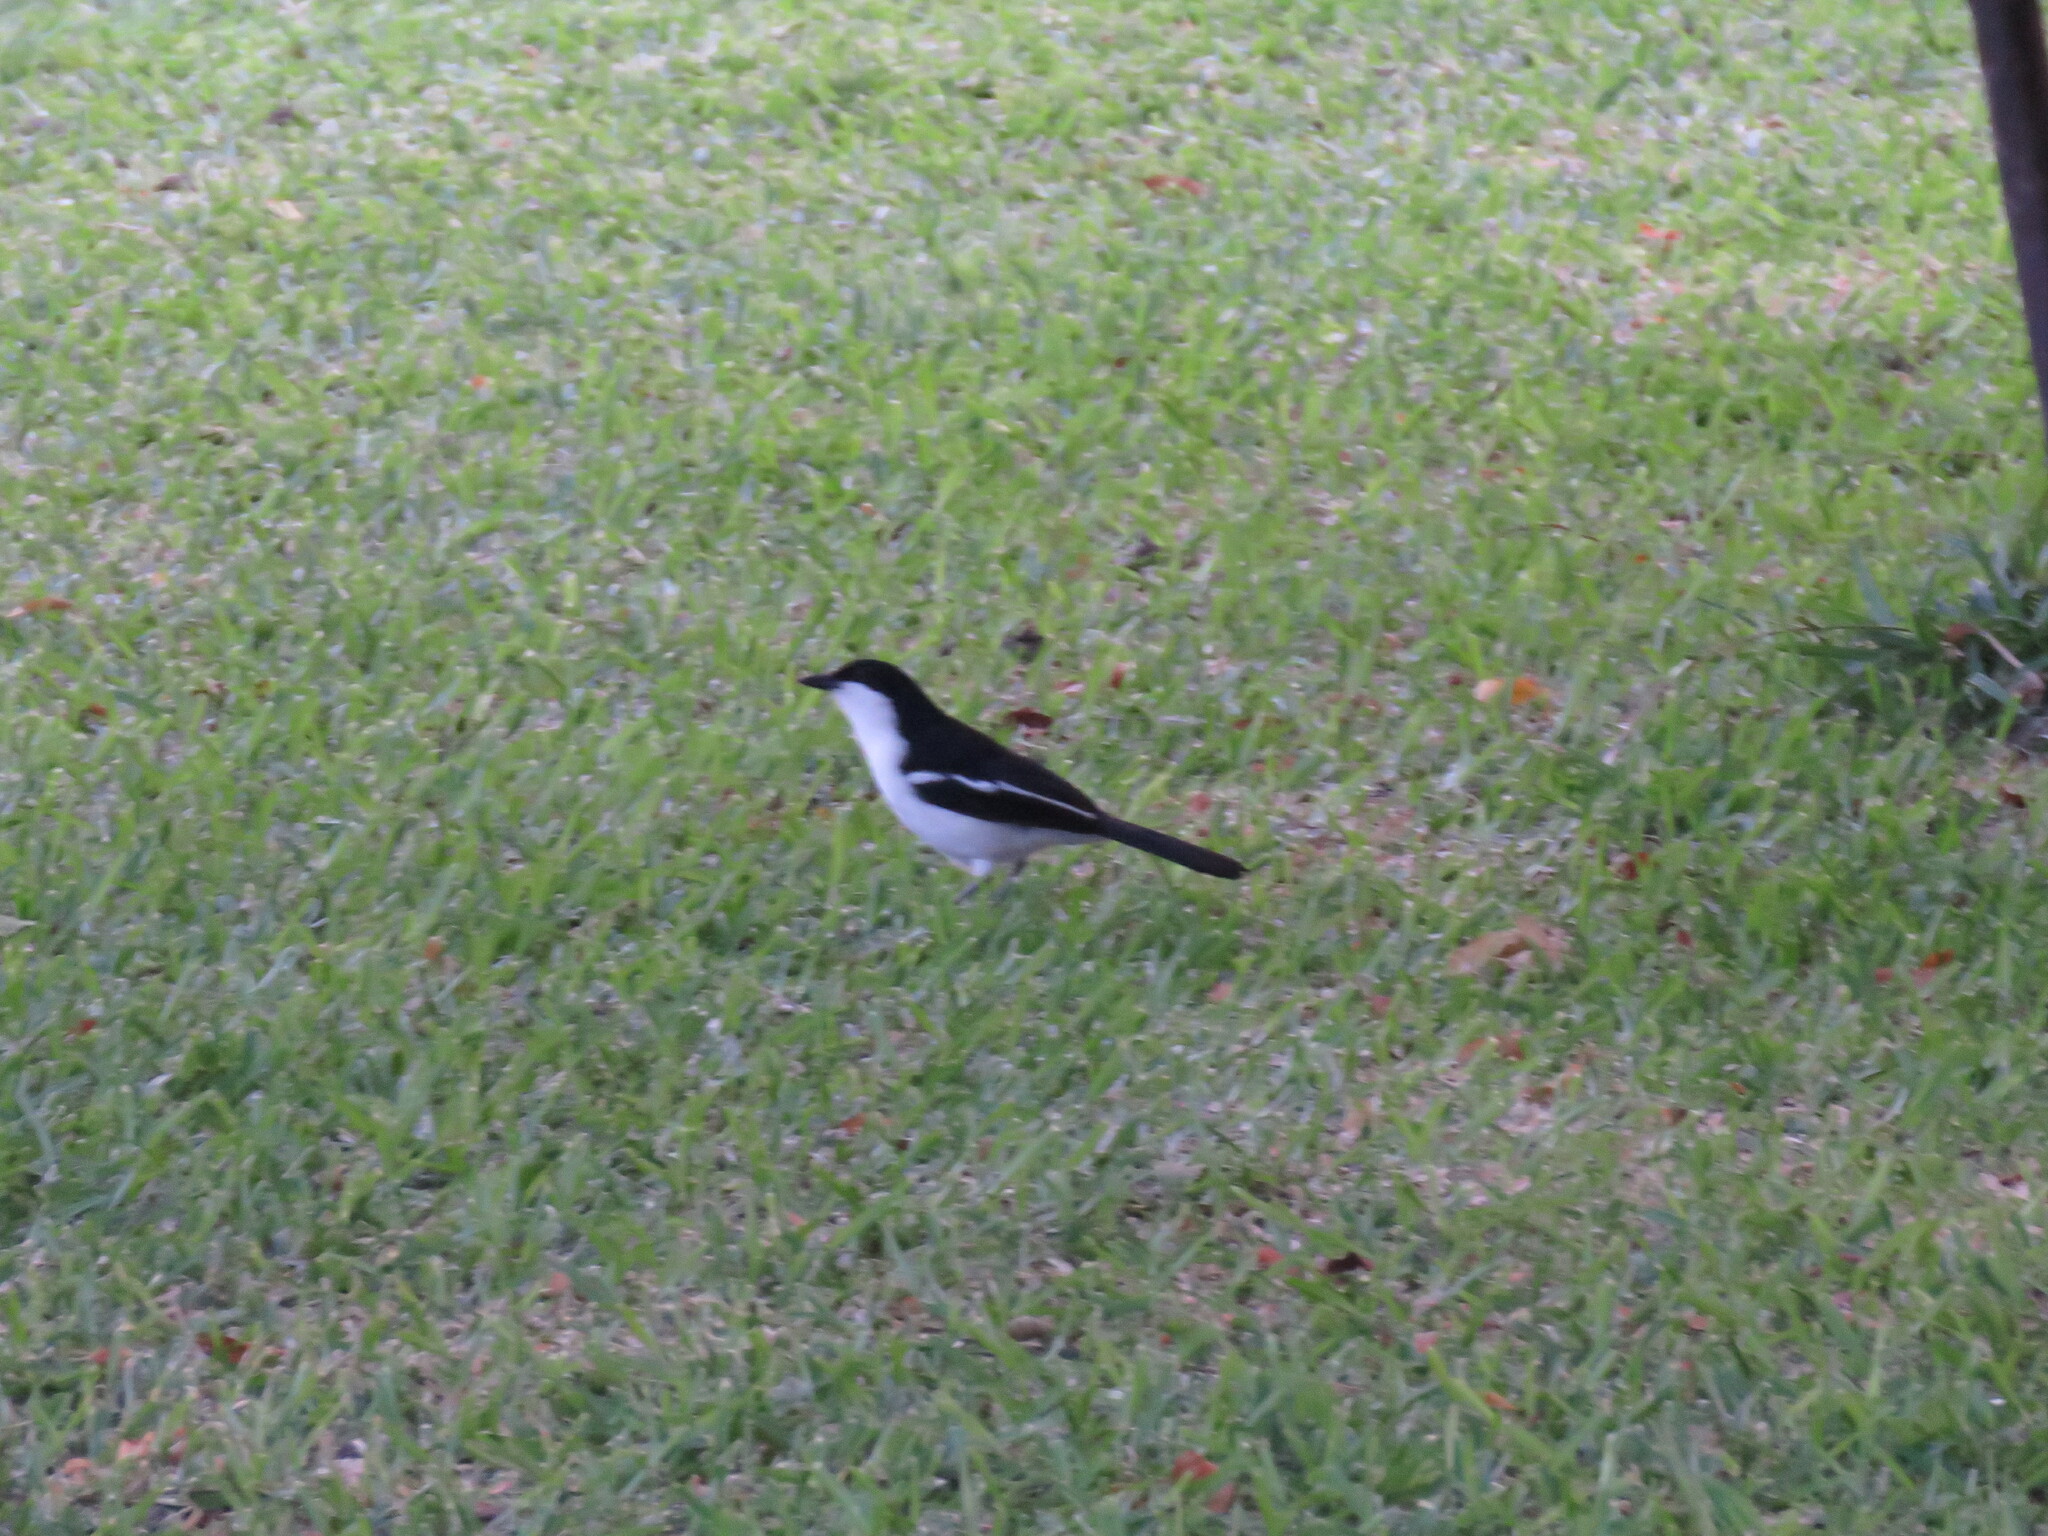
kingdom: Animalia
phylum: Chordata
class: Aves
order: Passeriformes
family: Malaconotidae
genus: Laniarius
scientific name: Laniarius bicolor
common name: Swamp boubou
